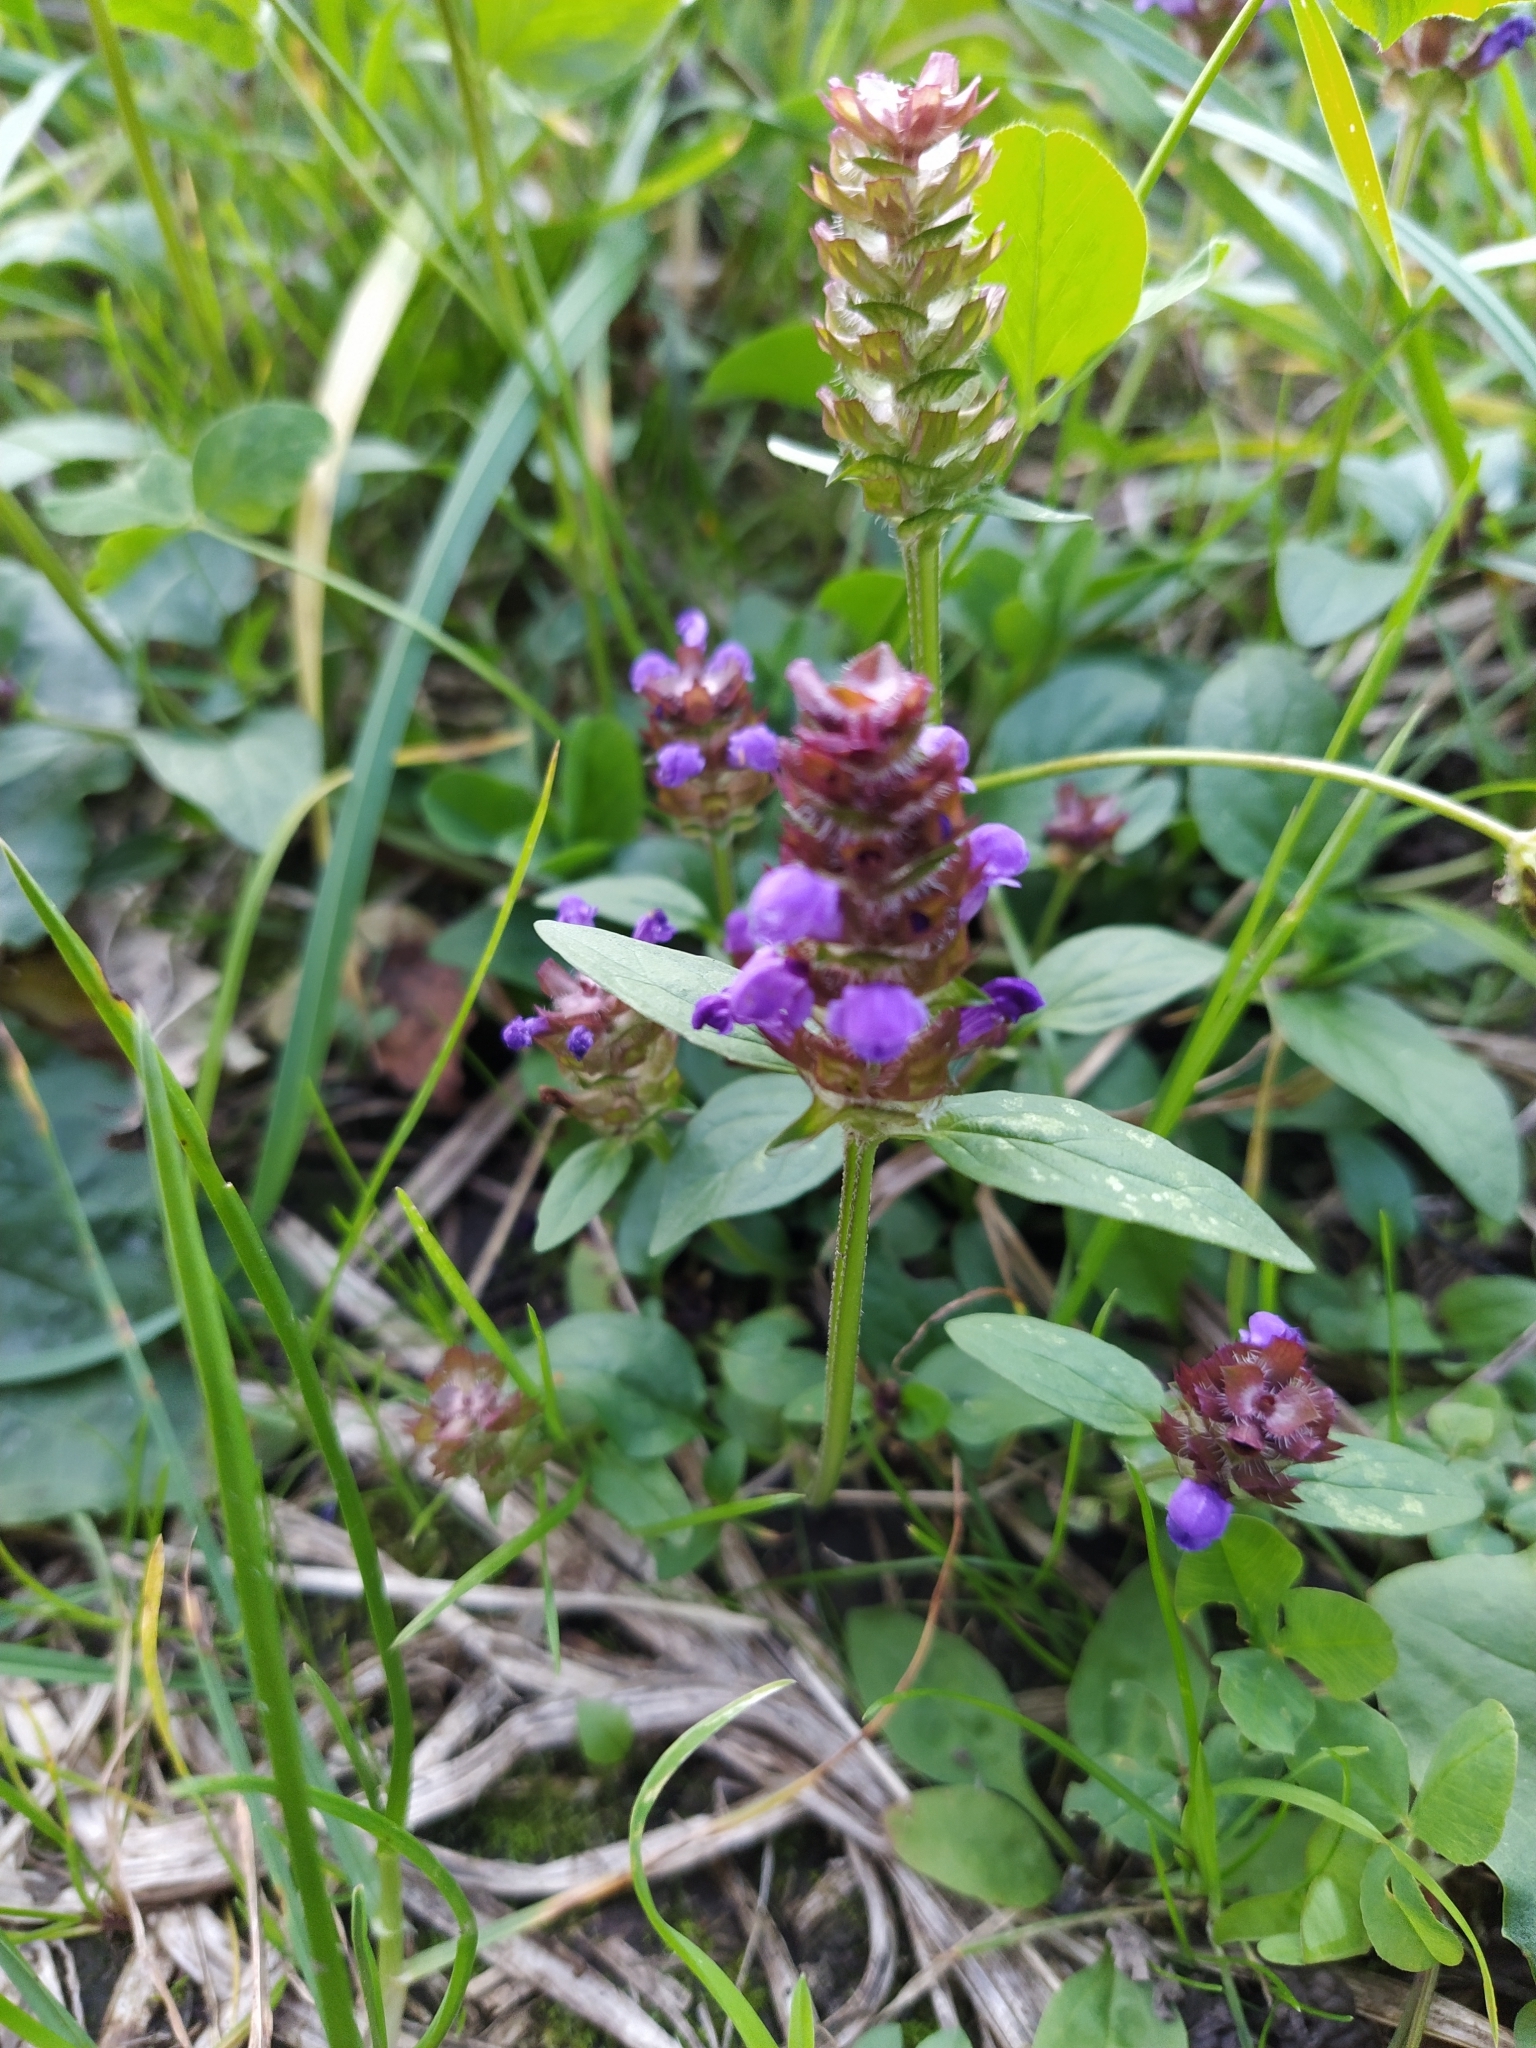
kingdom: Plantae
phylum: Tracheophyta
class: Magnoliopsida
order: Lamiales
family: Lamiaceae
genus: Prunella
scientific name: Prunella vulgaris
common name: Heal-all
